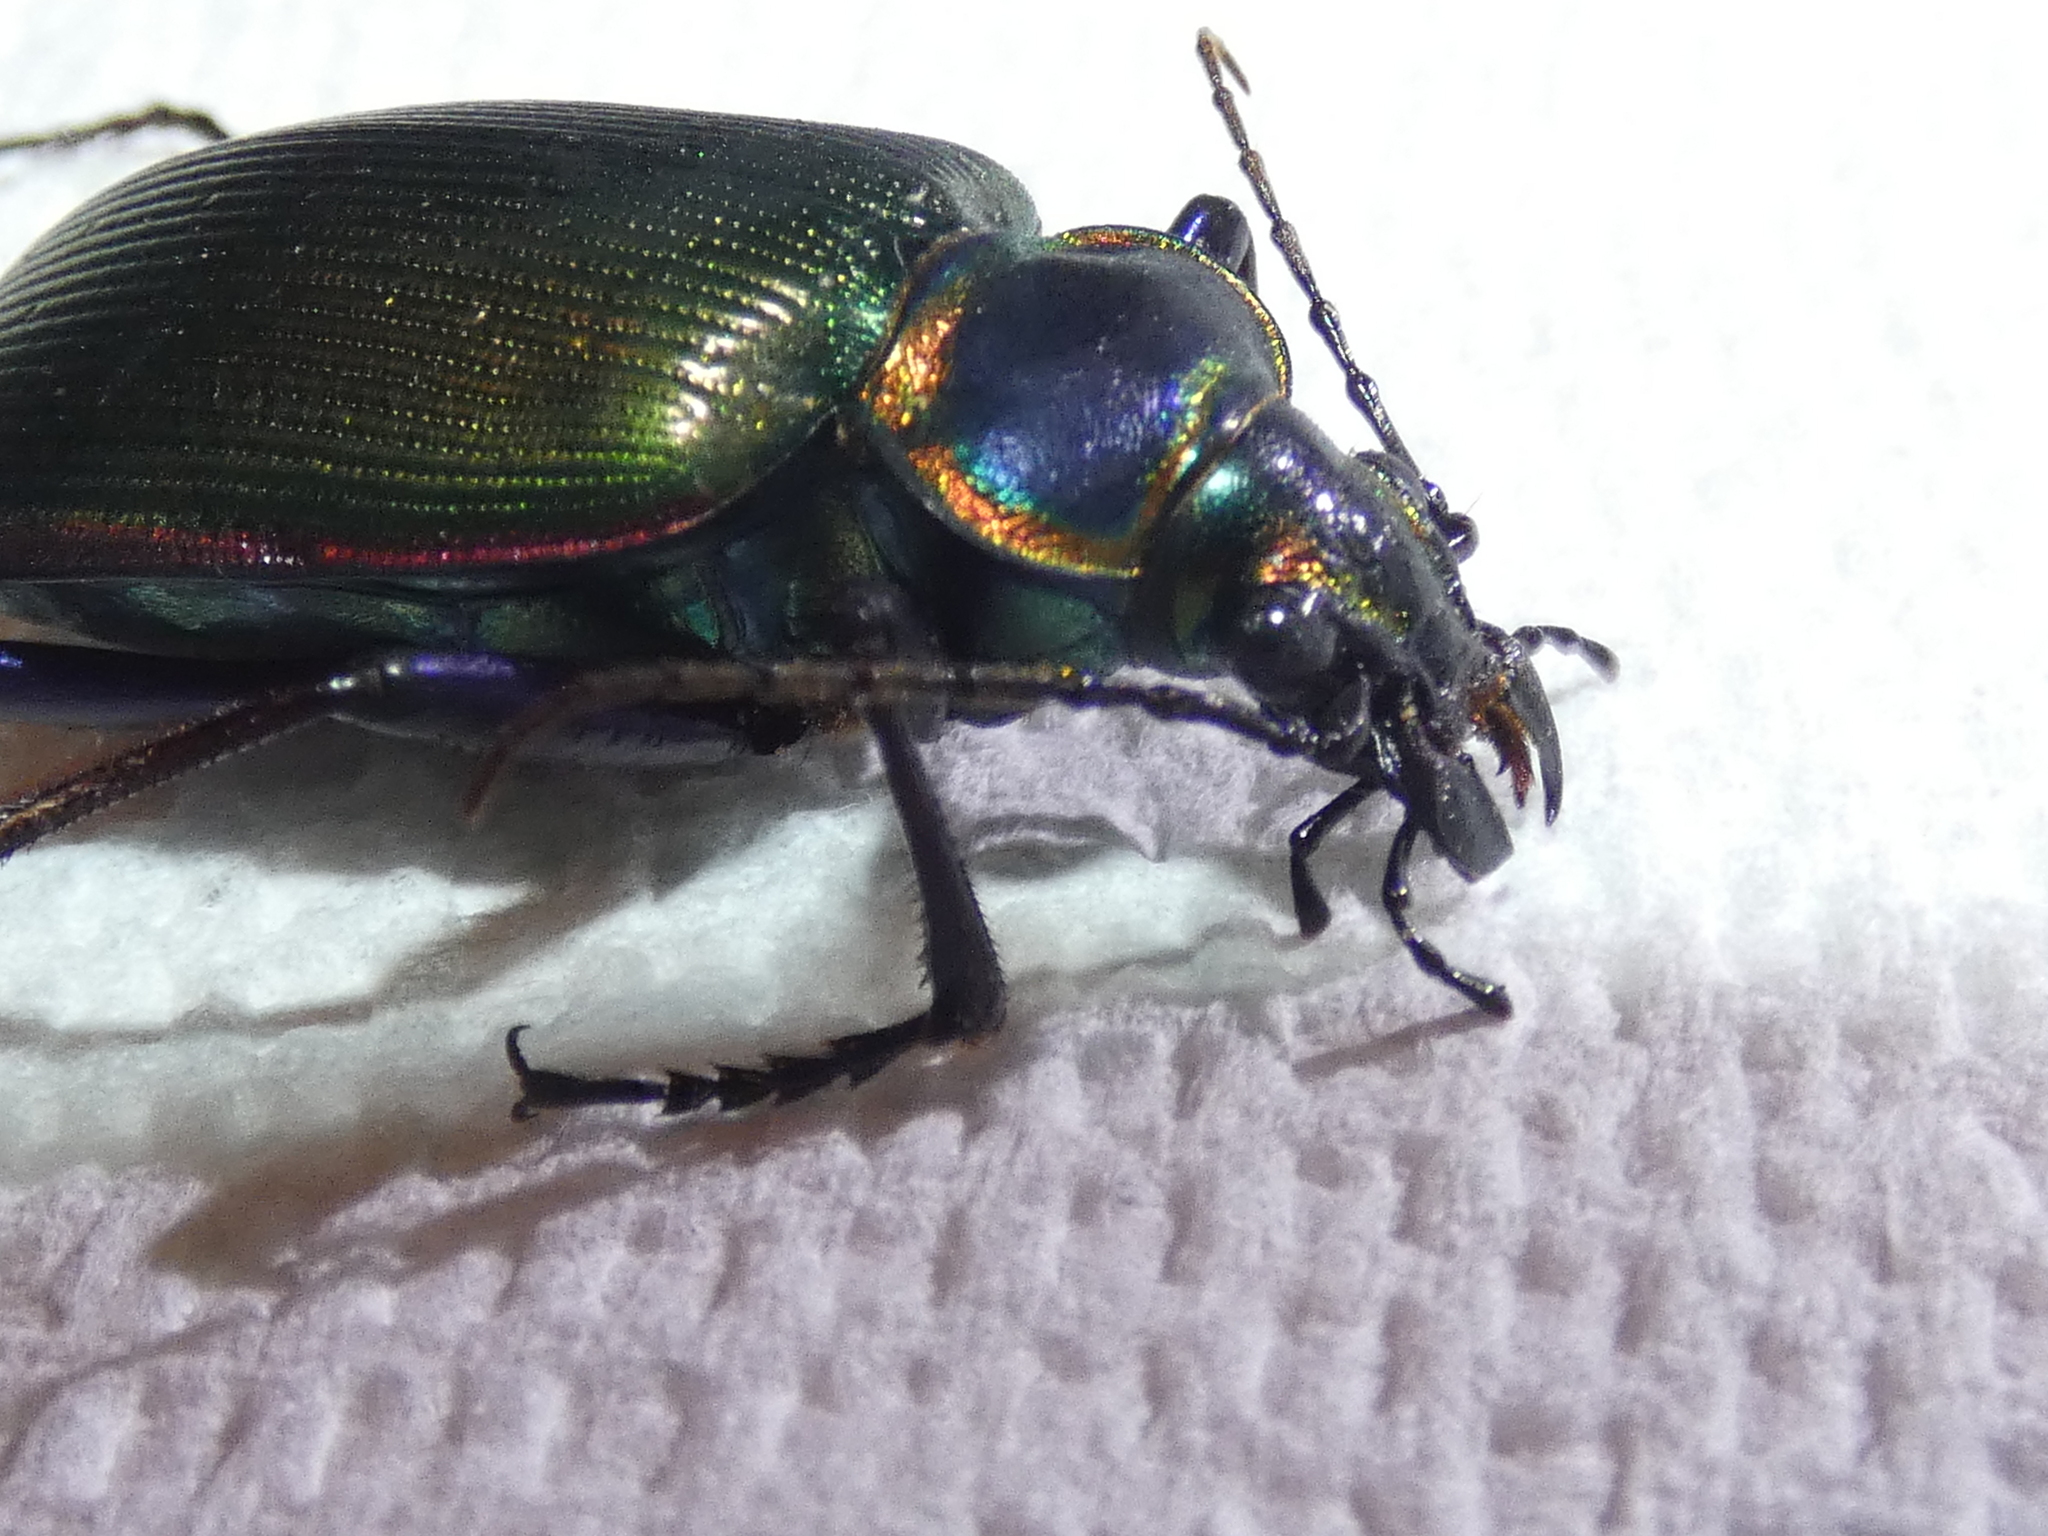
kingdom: Animalia
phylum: Arthropoda
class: Insecta
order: Coleoptera
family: Carabidae
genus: Calosoma
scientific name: Calosoma scrutator
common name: Fiery searcher beetle
